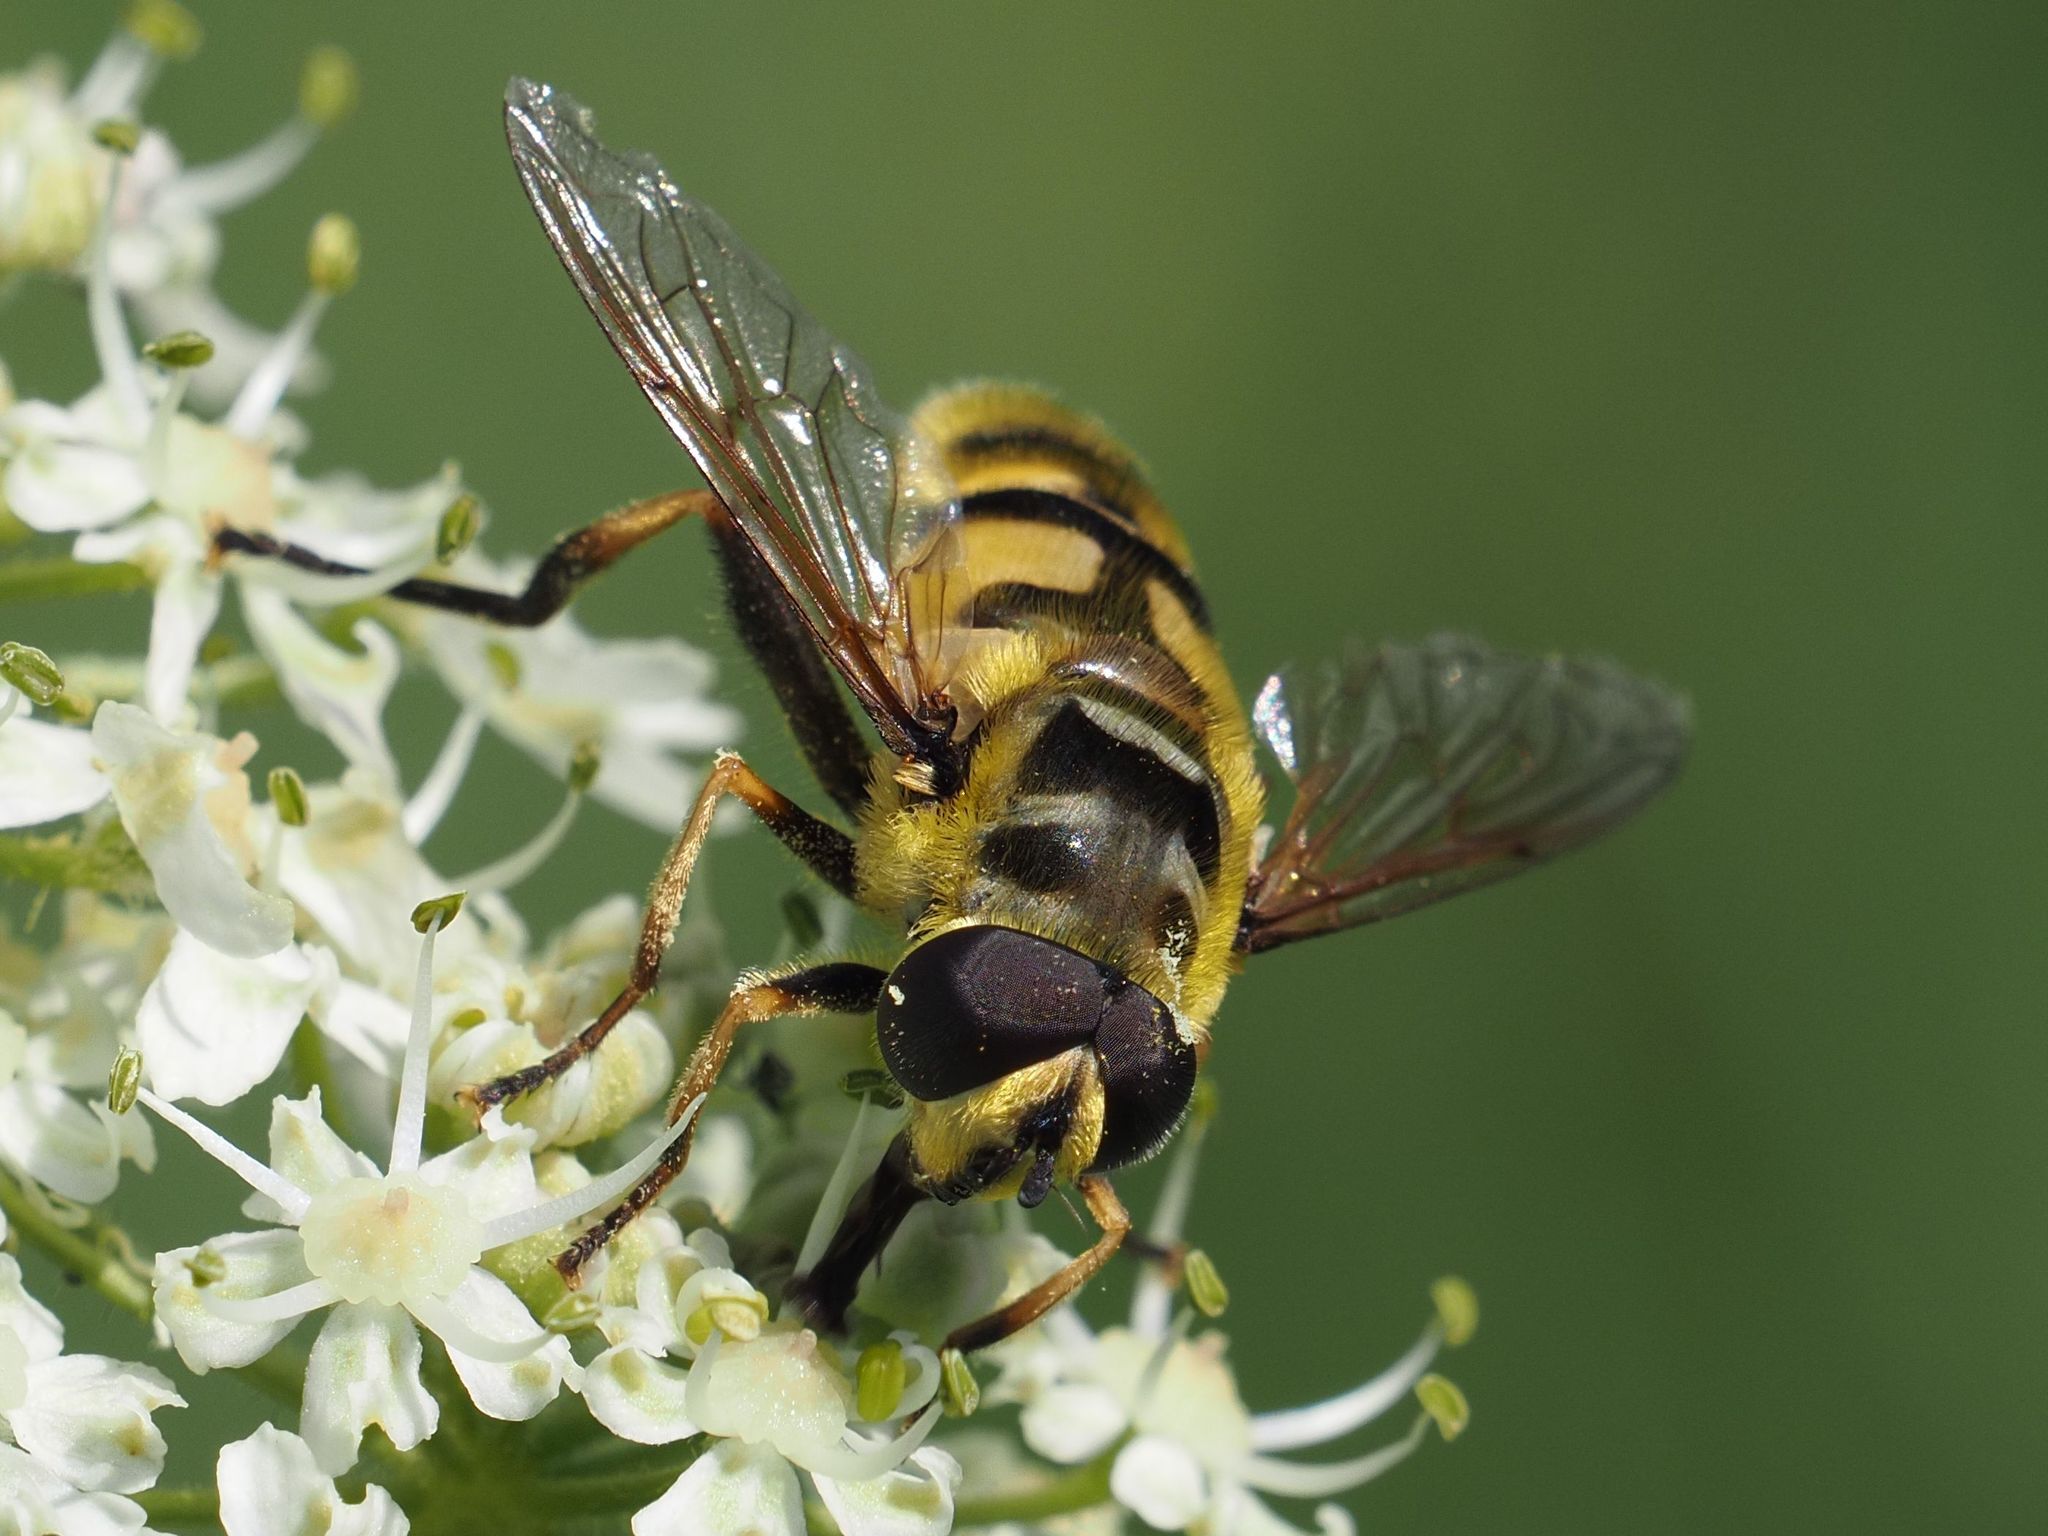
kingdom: Animalia
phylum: Arthropoda
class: Insecta
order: Diptera
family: Syrphidae
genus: Myathropa
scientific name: Myathropa florea
